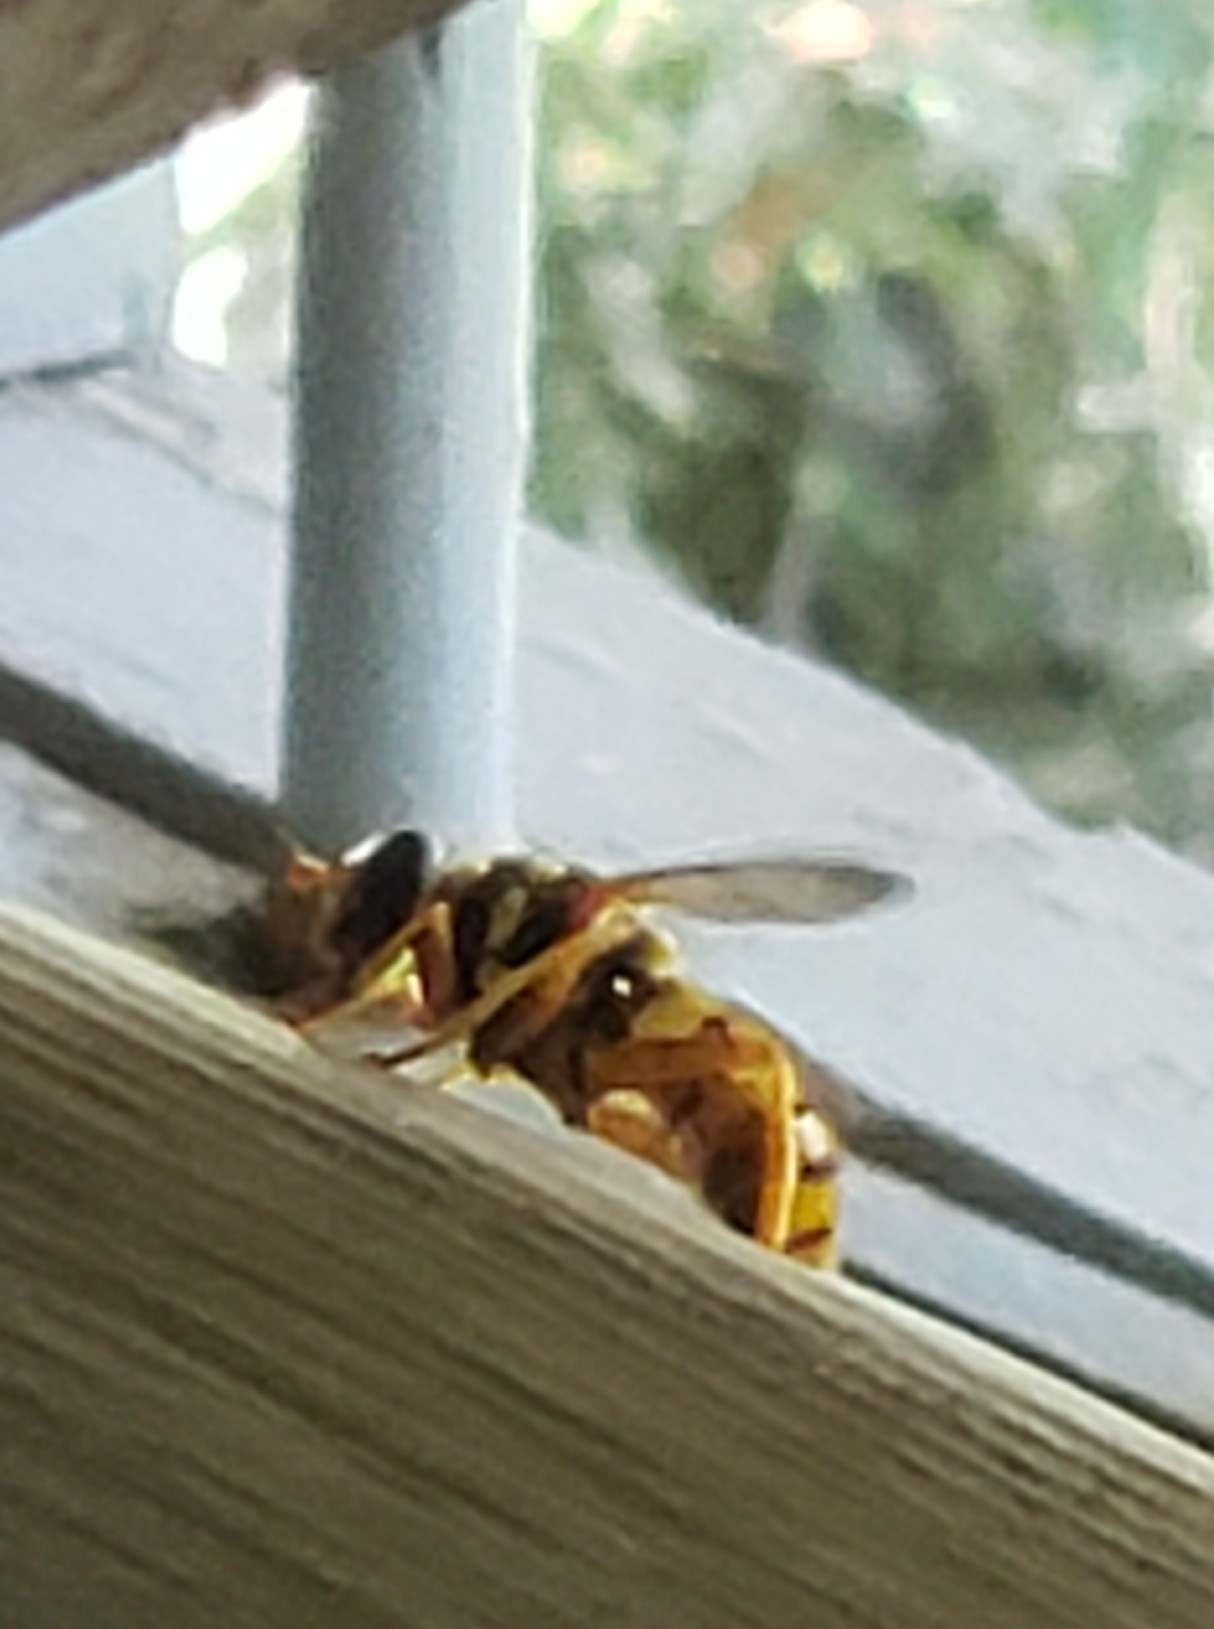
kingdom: Animalia
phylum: Arthropoda
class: Insecta
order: Diptera
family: Syrphidae
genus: Milesia
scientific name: Milesia virginiensis
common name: Virginia giant
